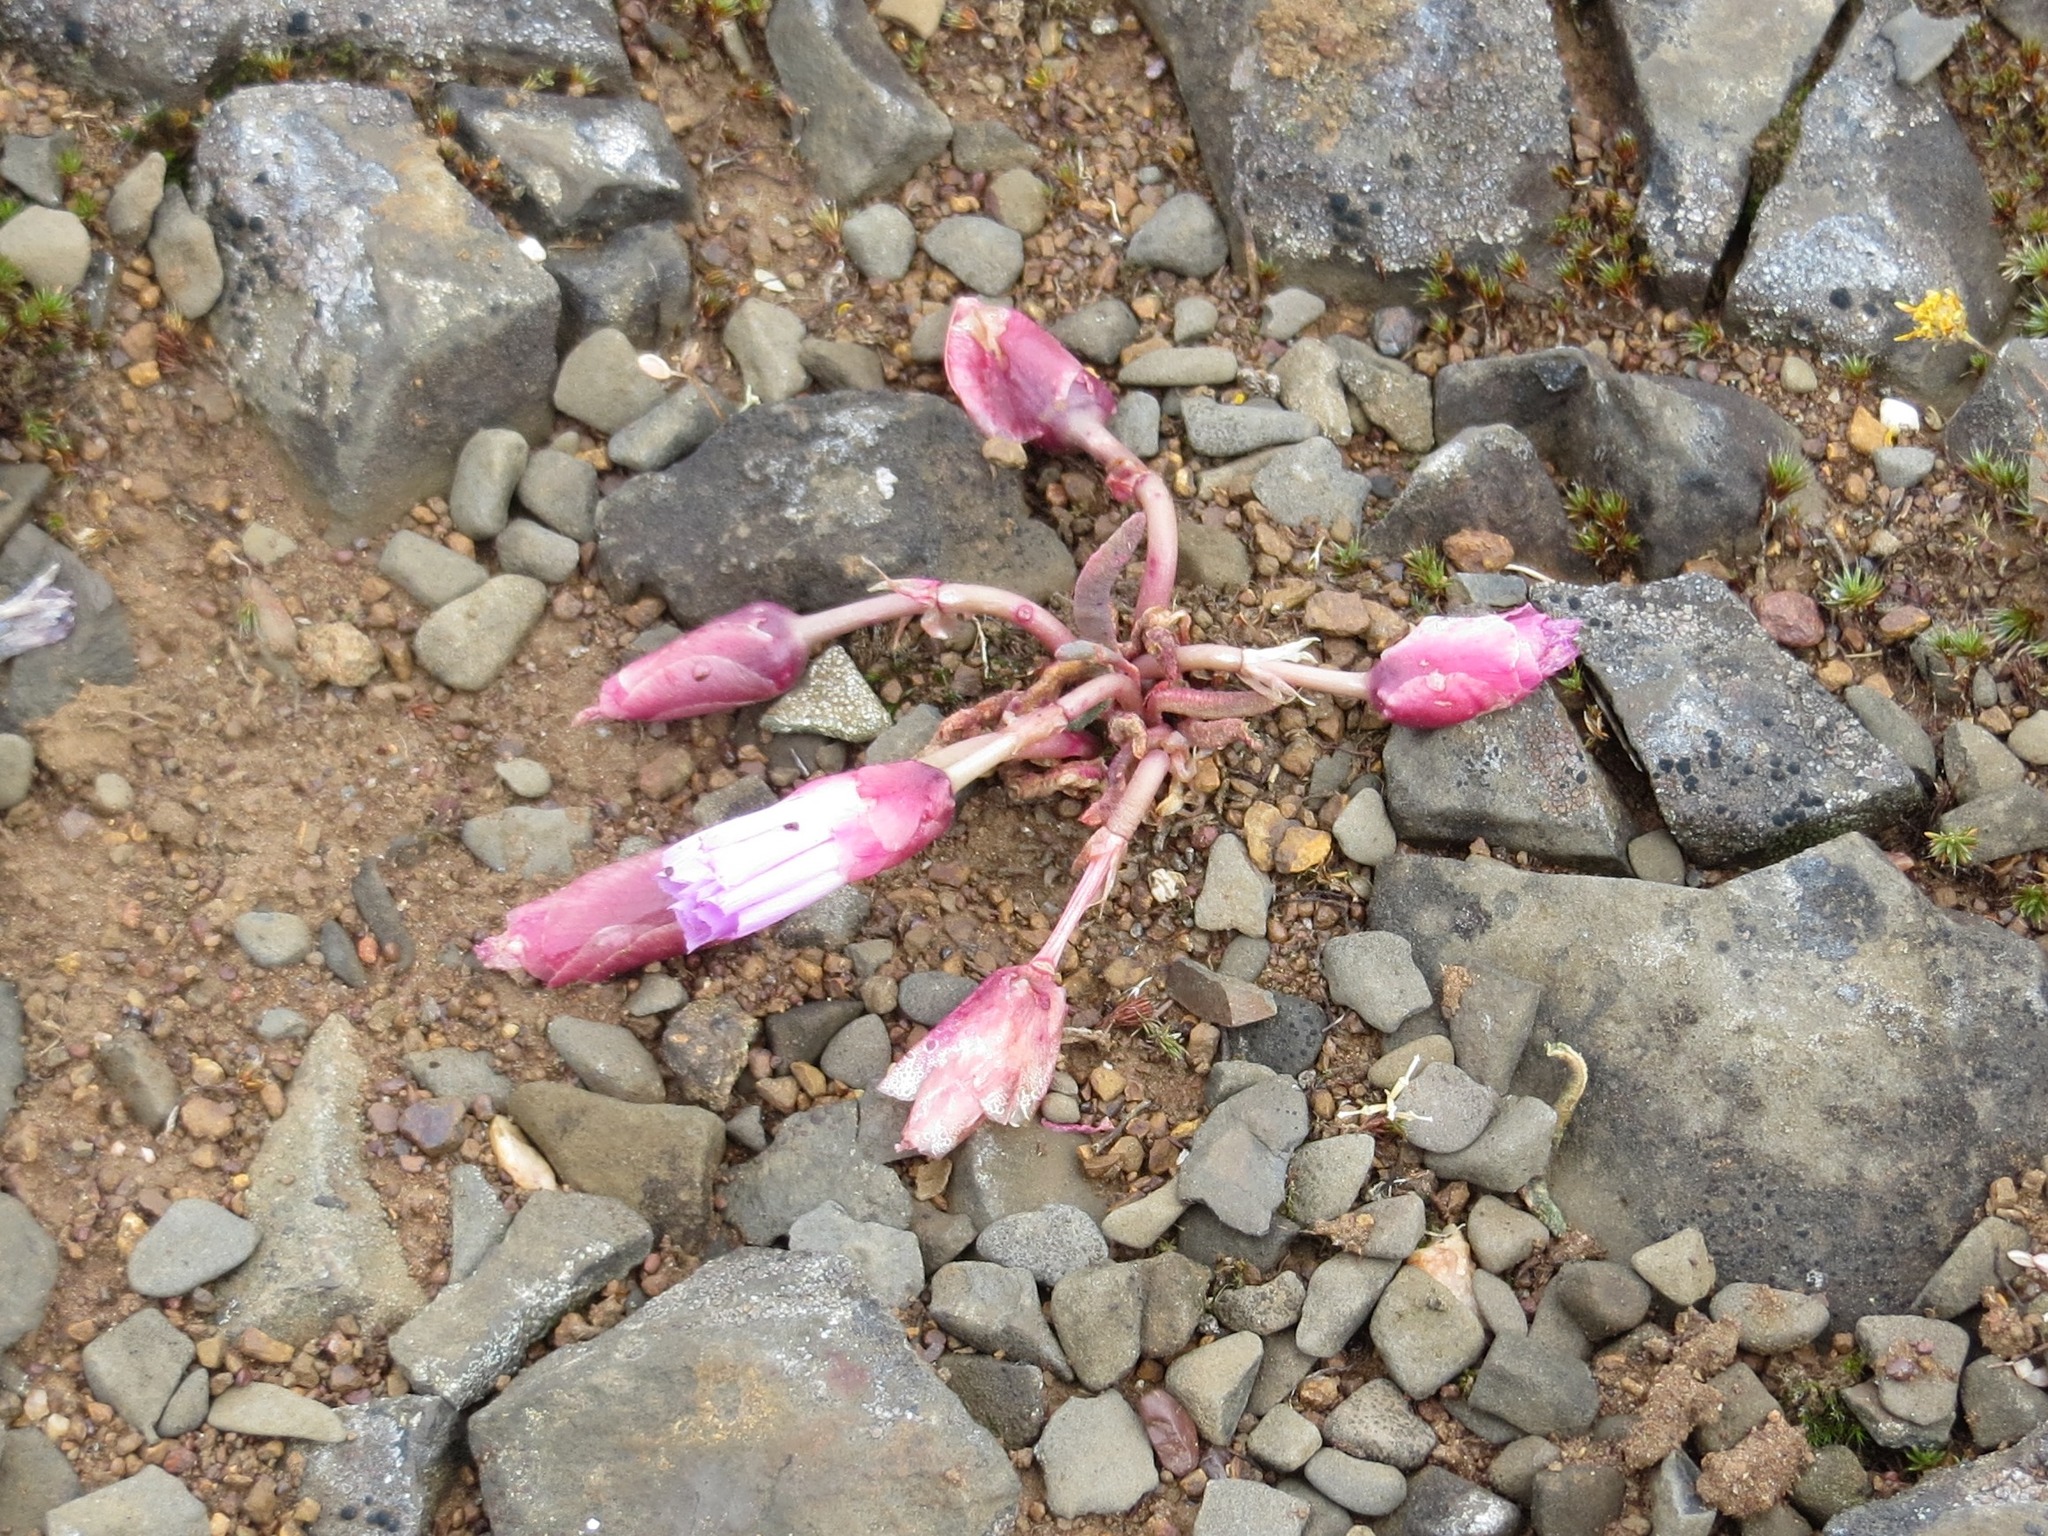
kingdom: Plantae
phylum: Tracheophyta
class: Magnoliopsida
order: Caryophyllales
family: Montiaceae
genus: Lewisia
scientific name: Lewisia rediviva
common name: Bitter-root
